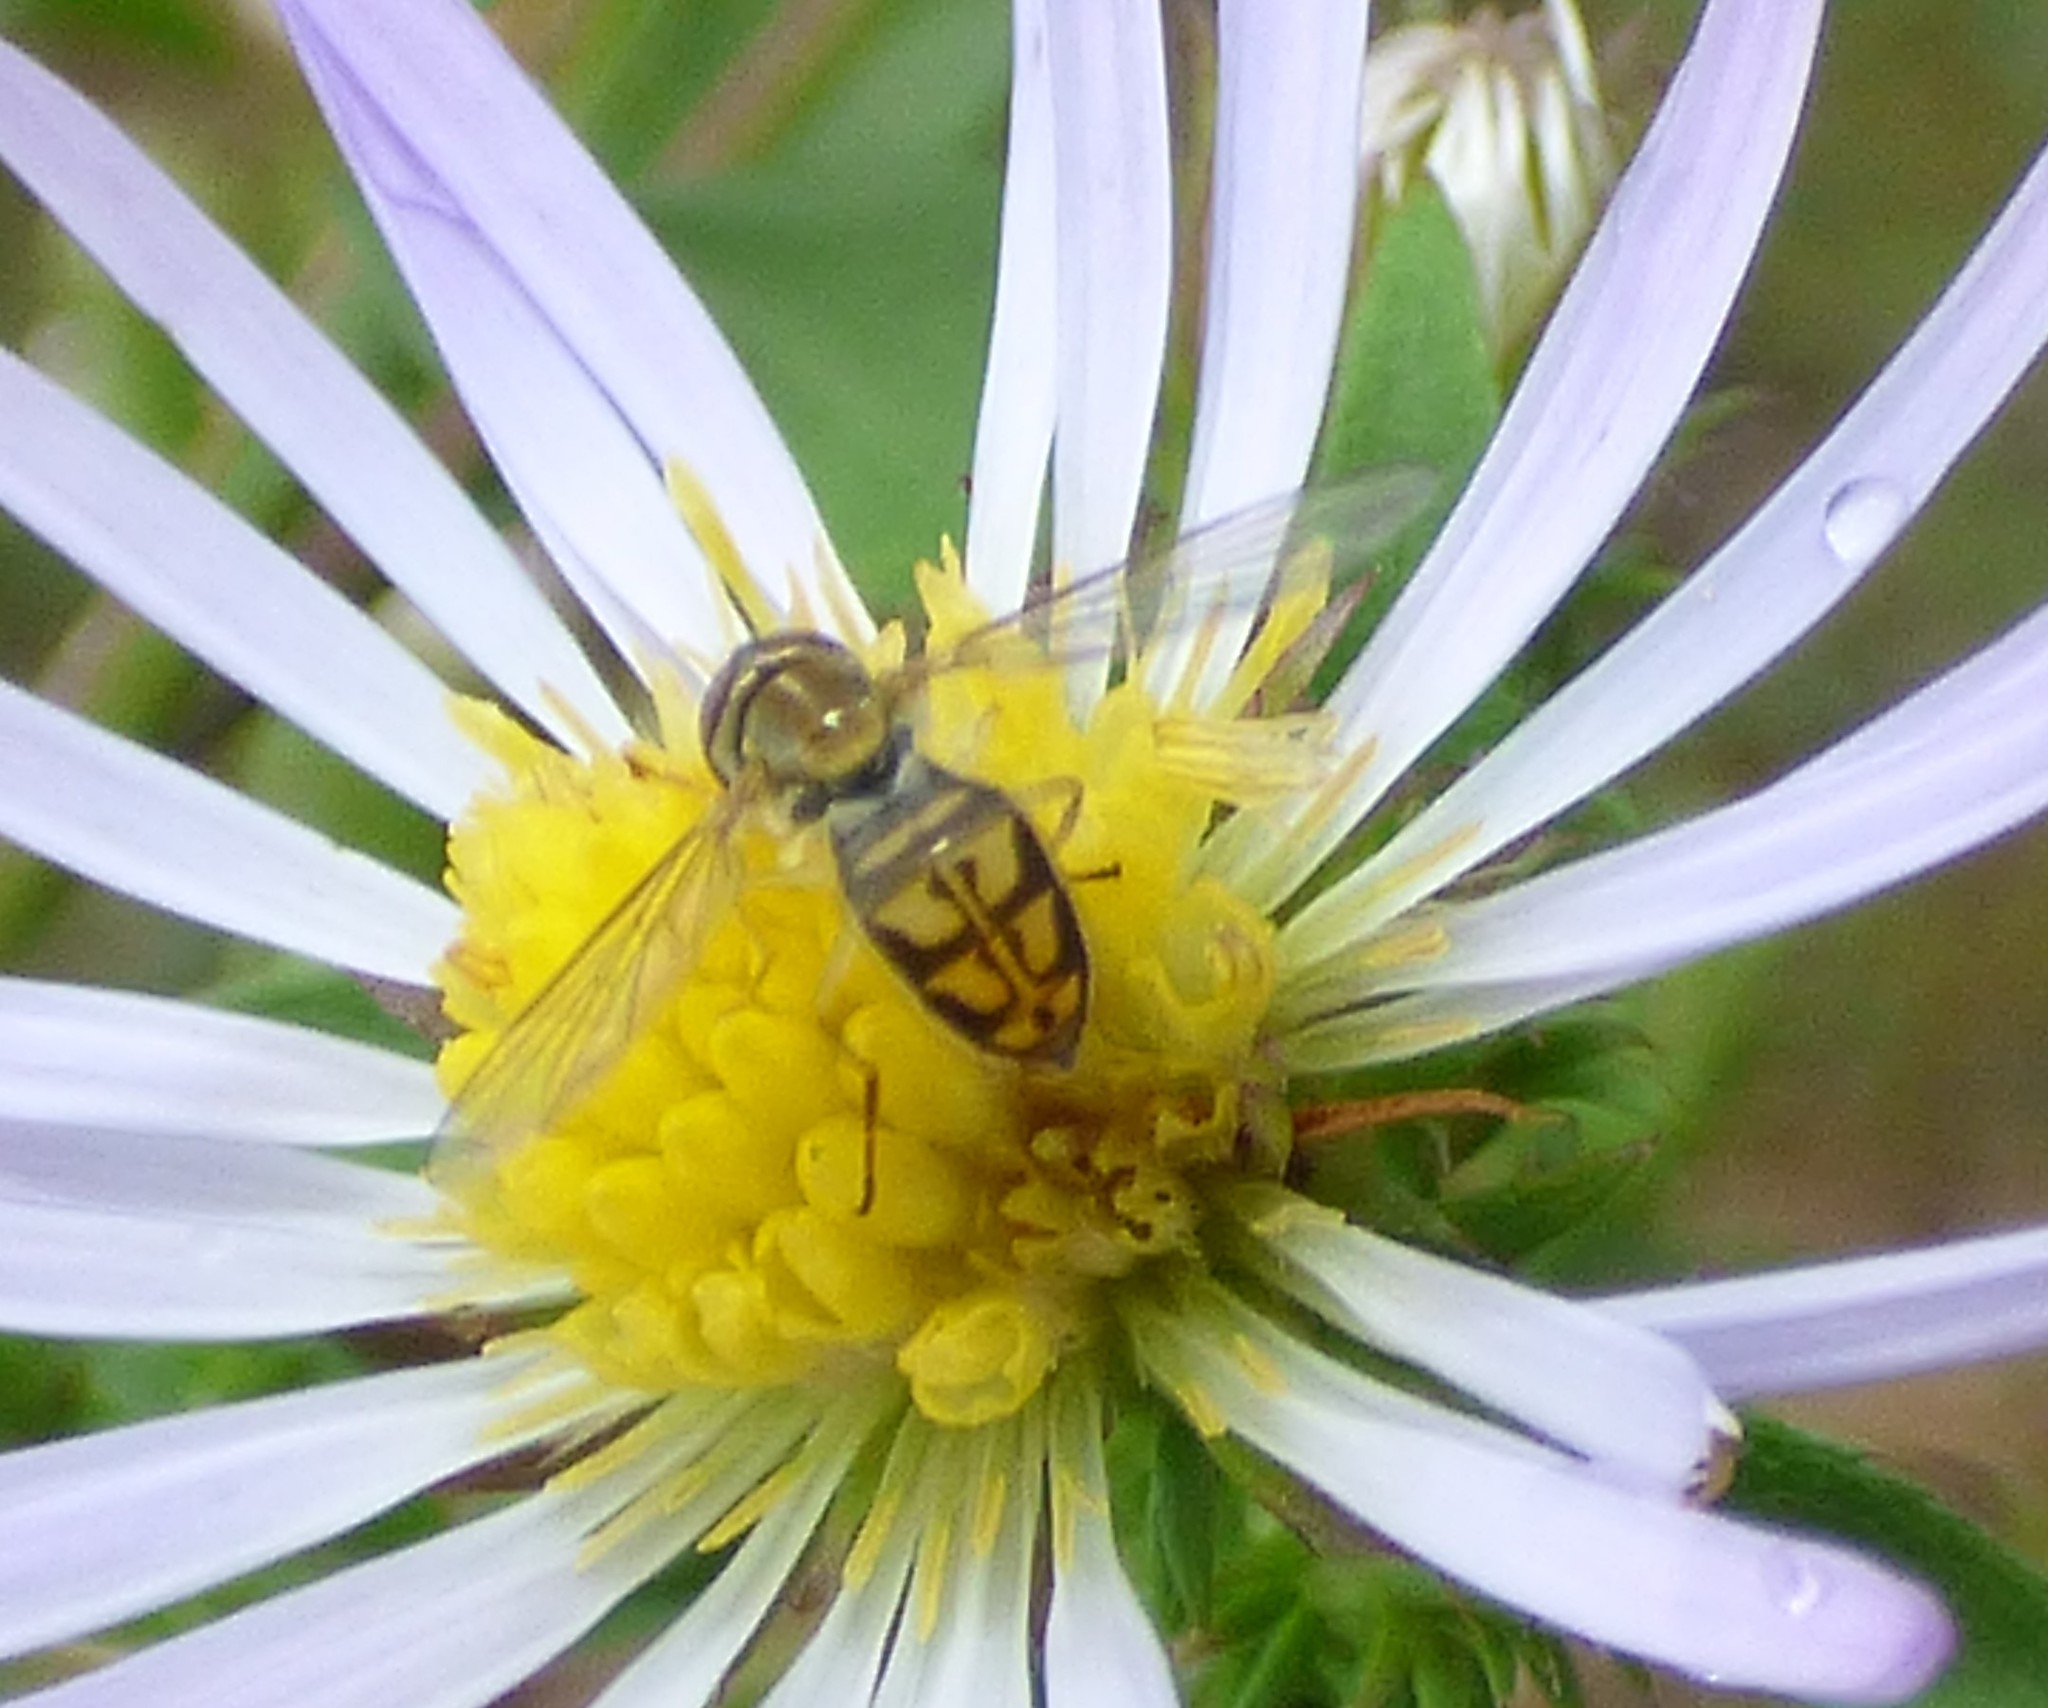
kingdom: Animalia
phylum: Arthropoda
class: Insecta
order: Diptera
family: Syrphidae
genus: Toxomerus
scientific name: Toxomerus marginatus
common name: Syrphid fly
